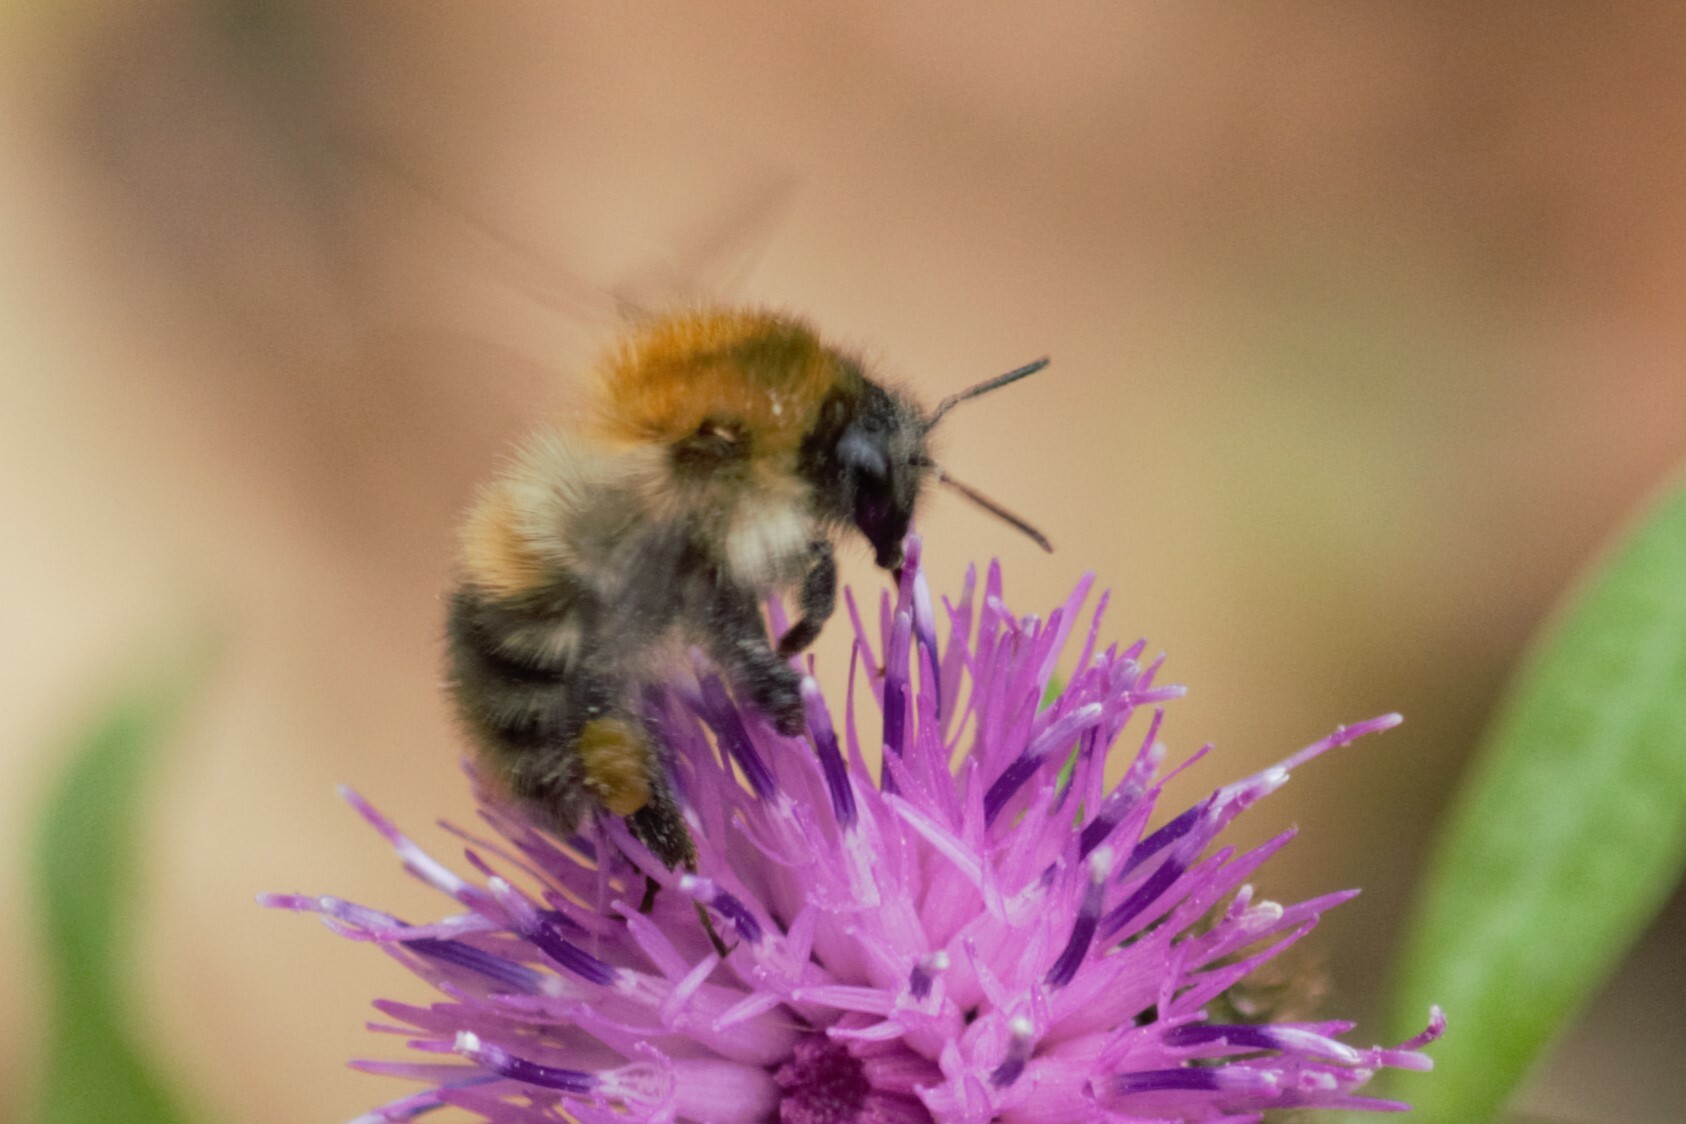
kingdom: Animalia
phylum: Arthropoda
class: Insecta
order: Hymenoptera
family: Apidae
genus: Bombus
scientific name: Bombus pascuorum
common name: Common carder bee
